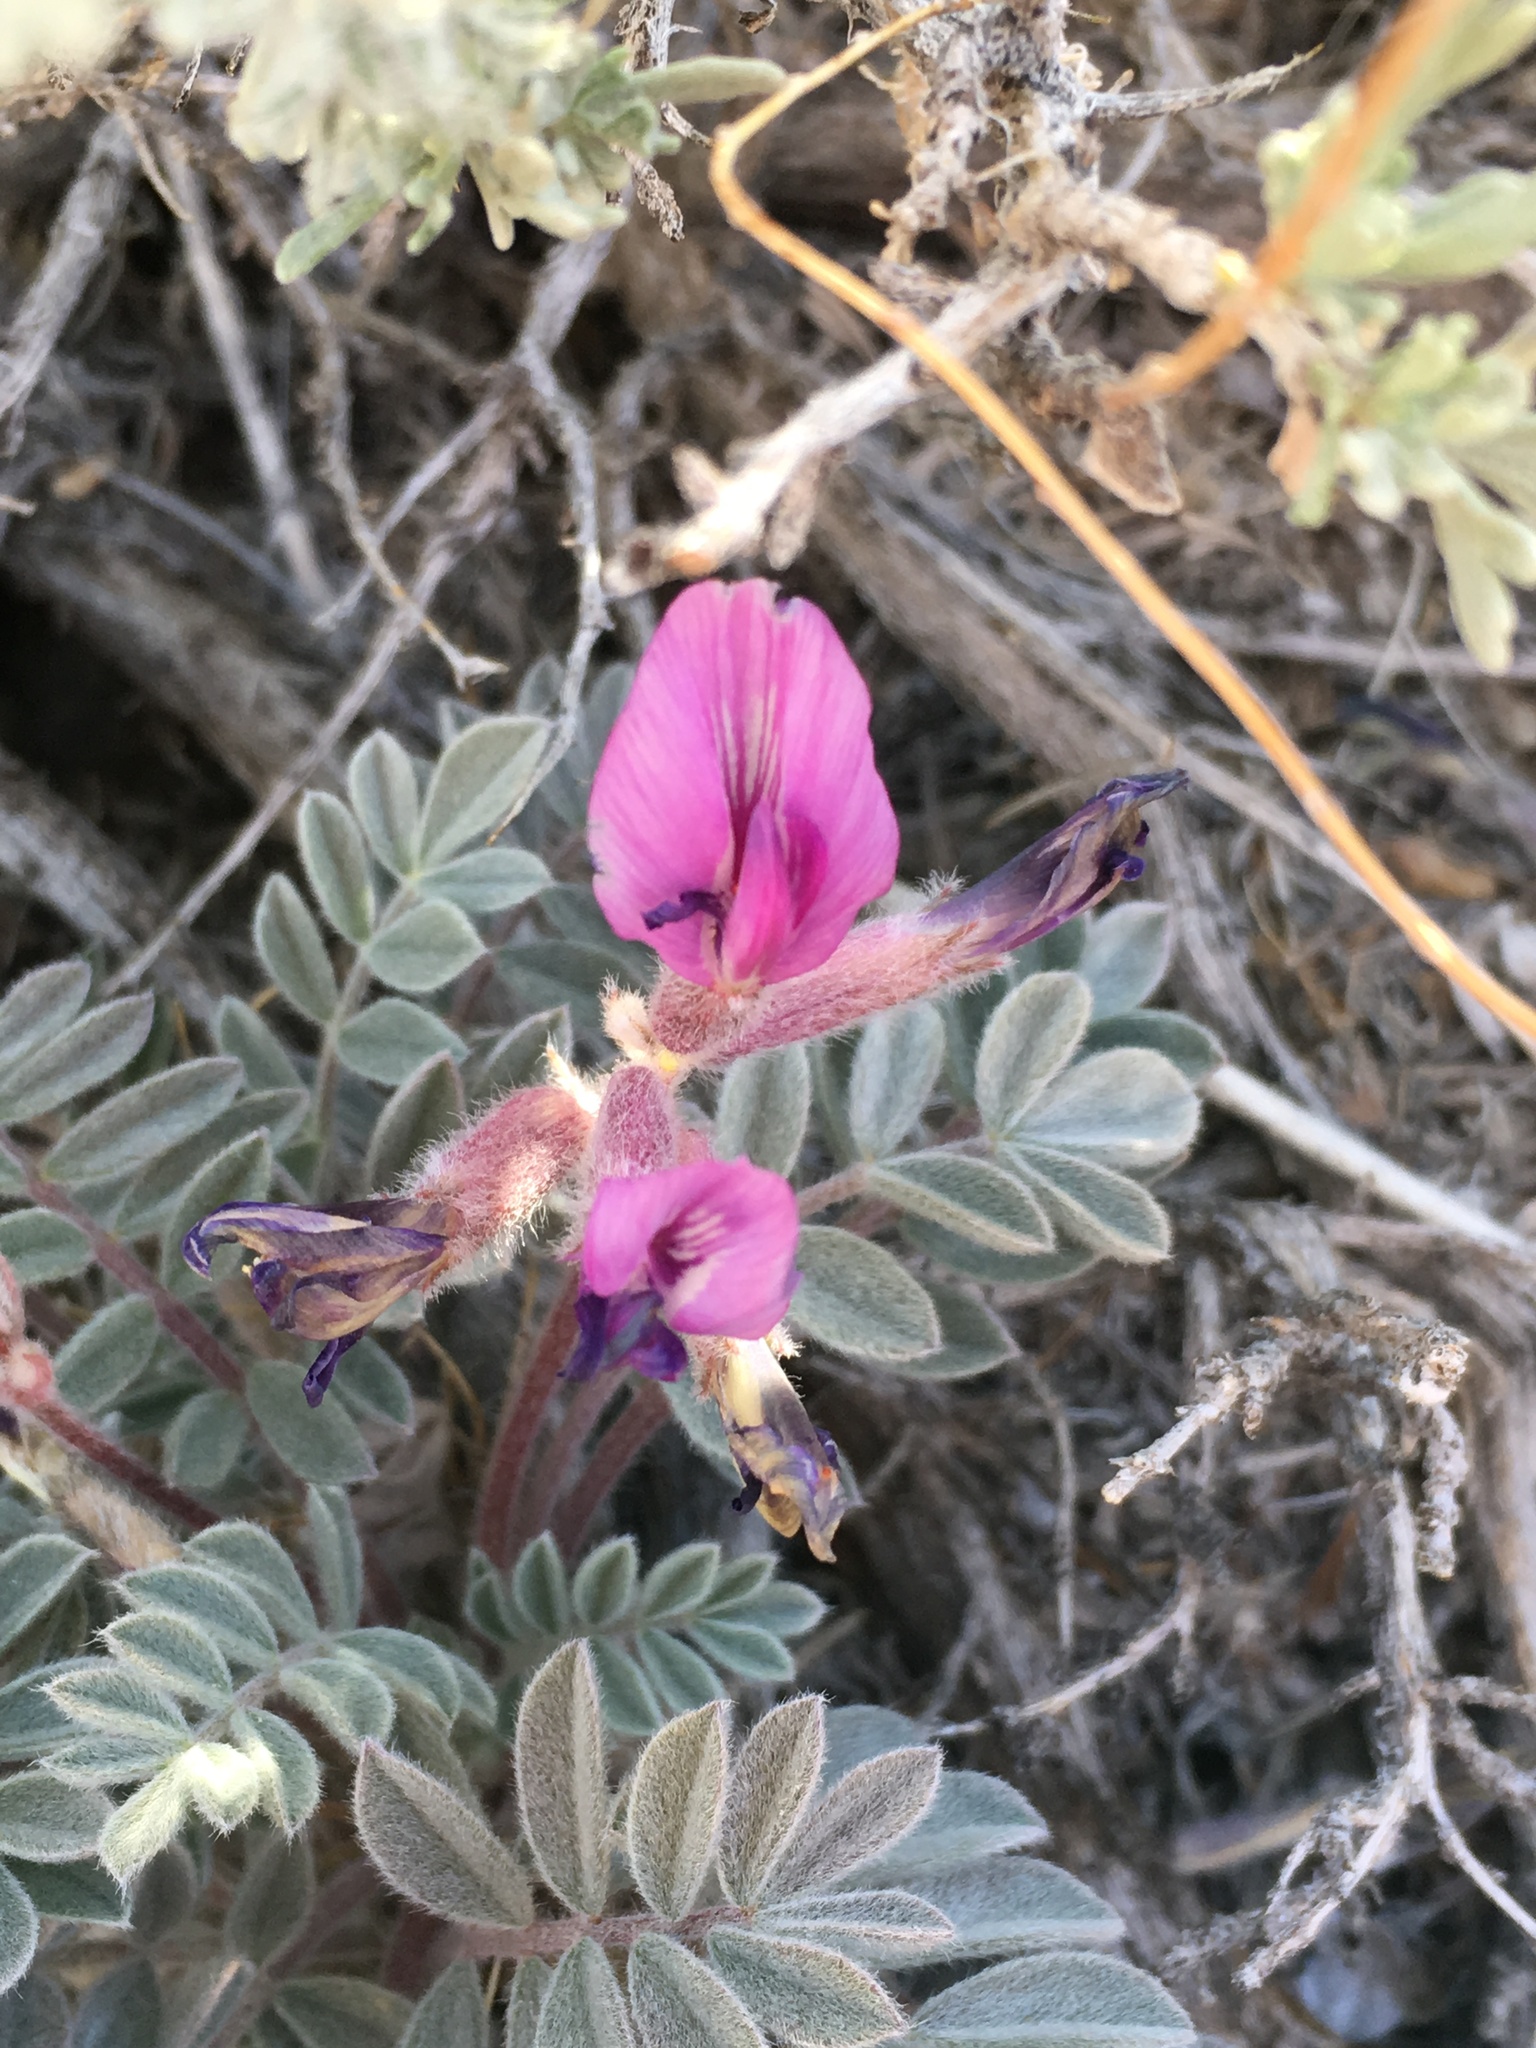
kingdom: Plantae
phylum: Tracheophyta
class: Magnoliopsida
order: Fabales
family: Fabaceae
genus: Astragalus
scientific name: Astragalus newberryi
